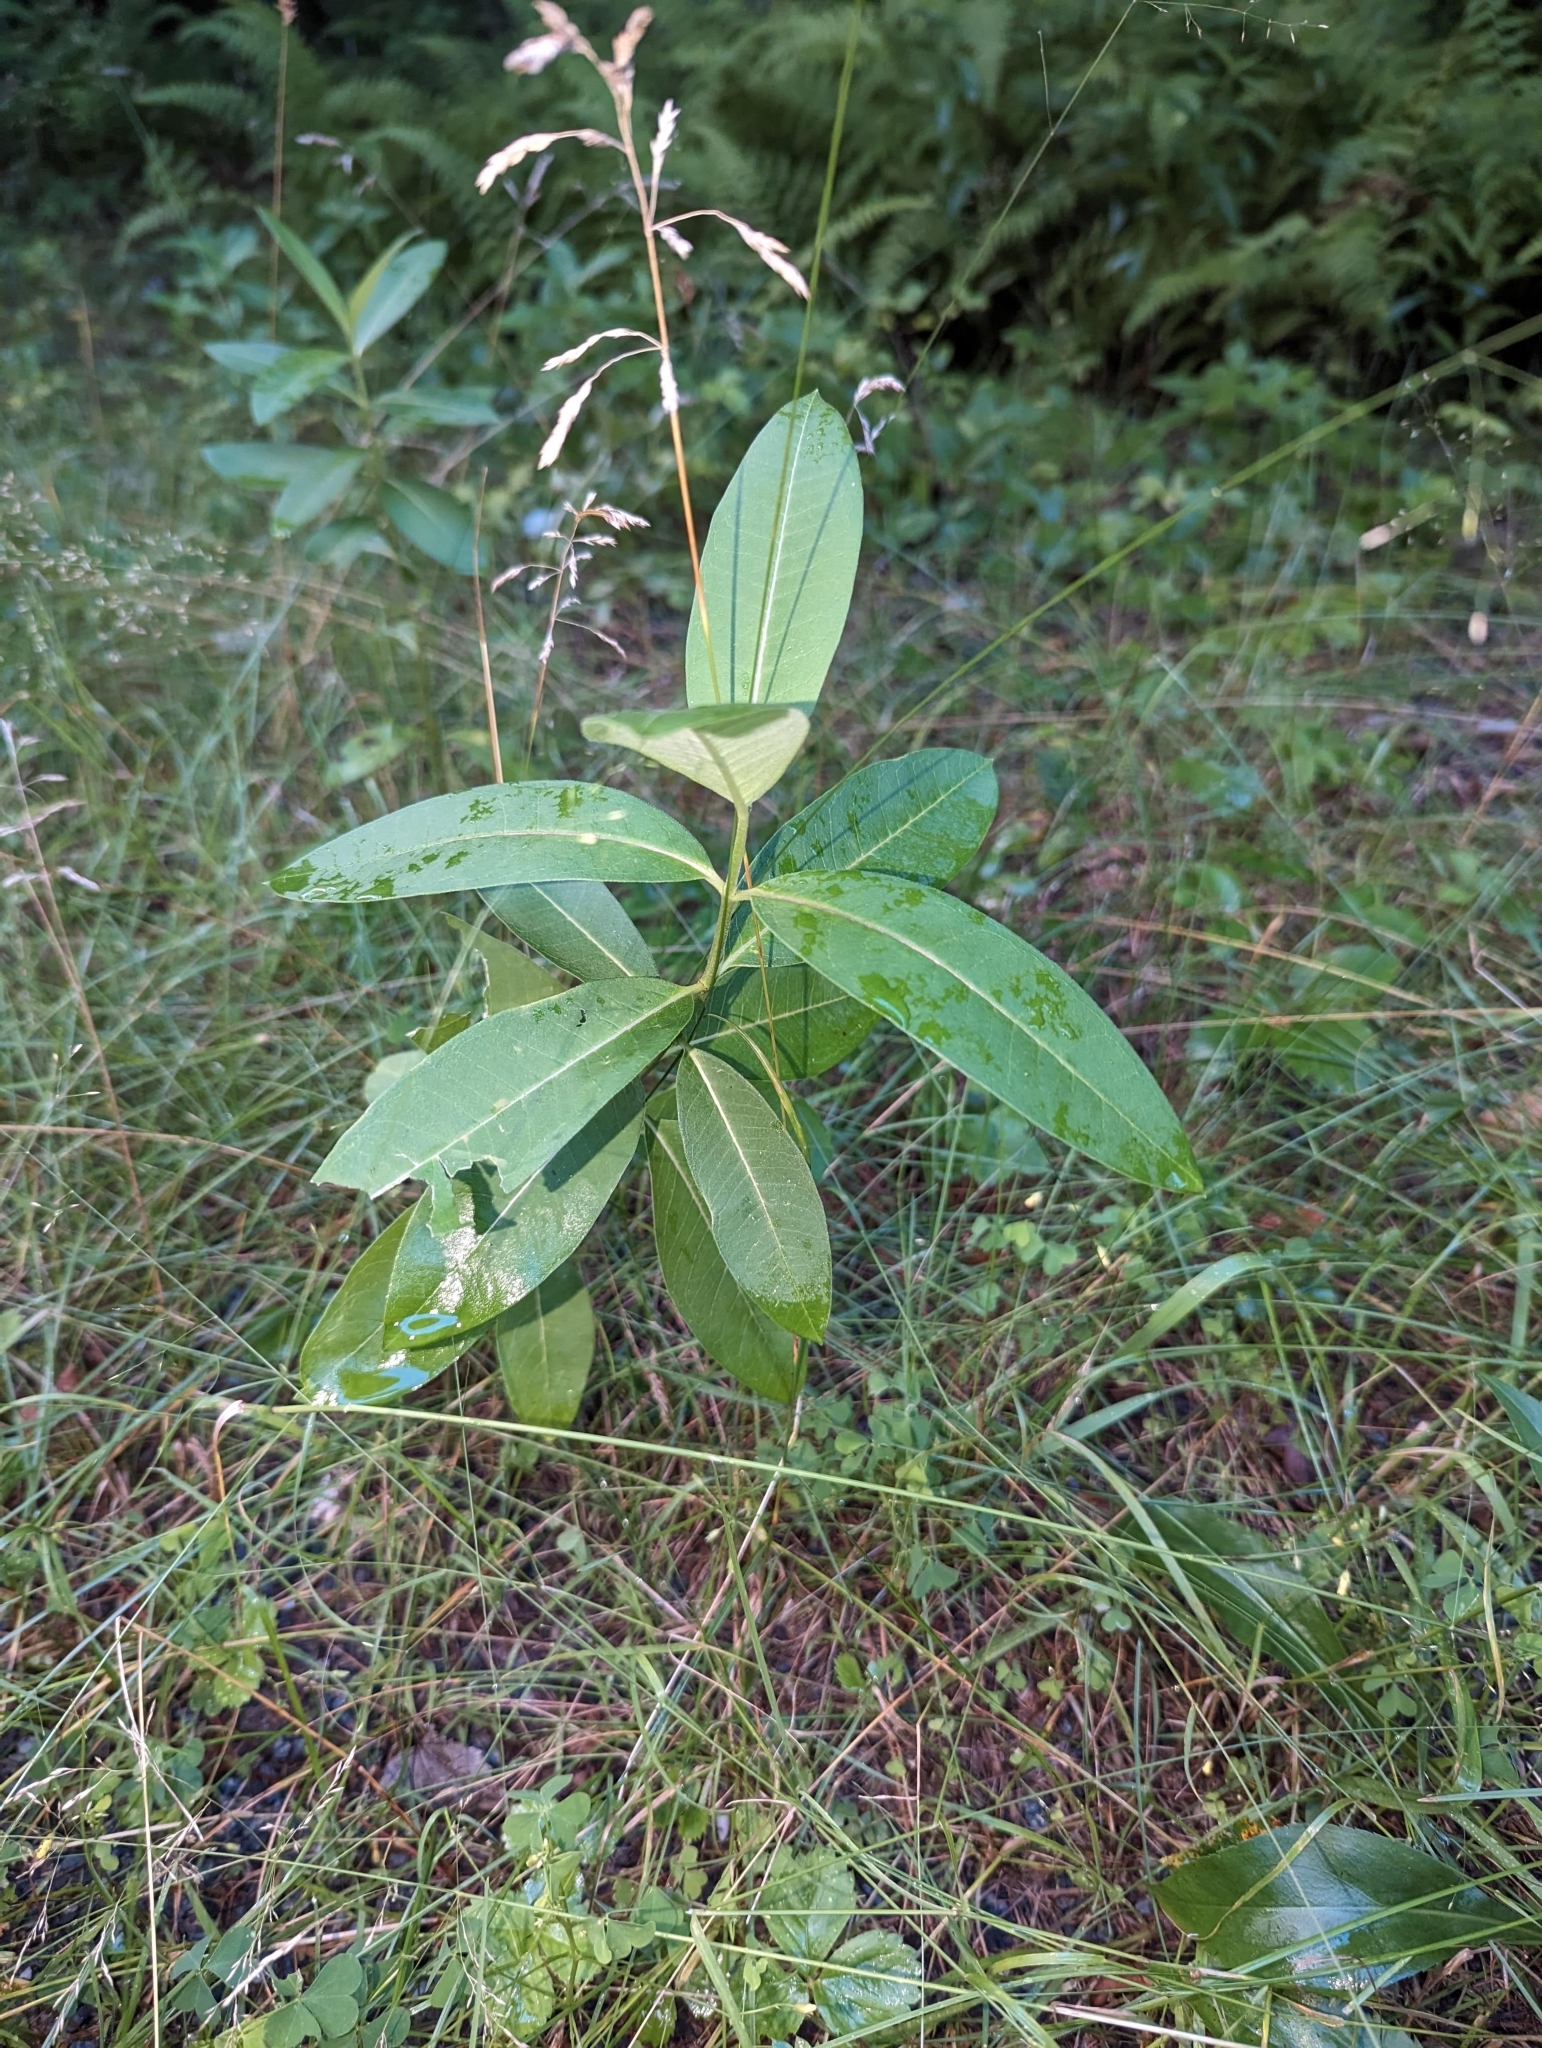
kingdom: Plantae
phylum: Tracheophyta
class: Magnoliopsida
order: Gentianales
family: Apocynaceae
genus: Asclepias
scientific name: Asclepias syriaca
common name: Common milkweed
